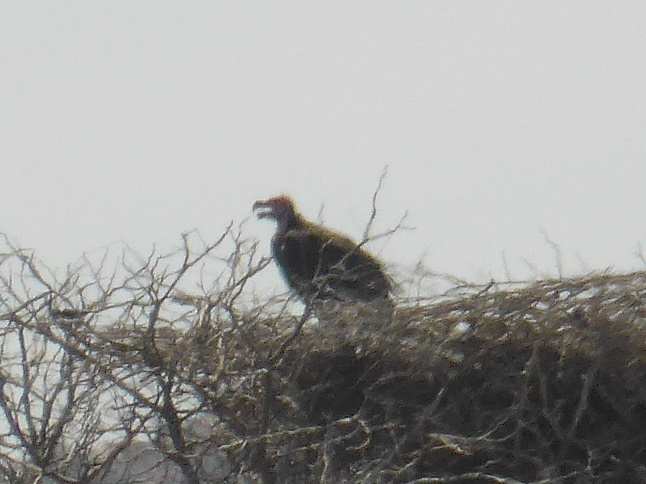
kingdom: Animalia
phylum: Chordata
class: Aves
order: Accipitriformes
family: Accipitridae
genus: Torgos
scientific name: Torgos tracheliotos
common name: Lappet-faced vulture
